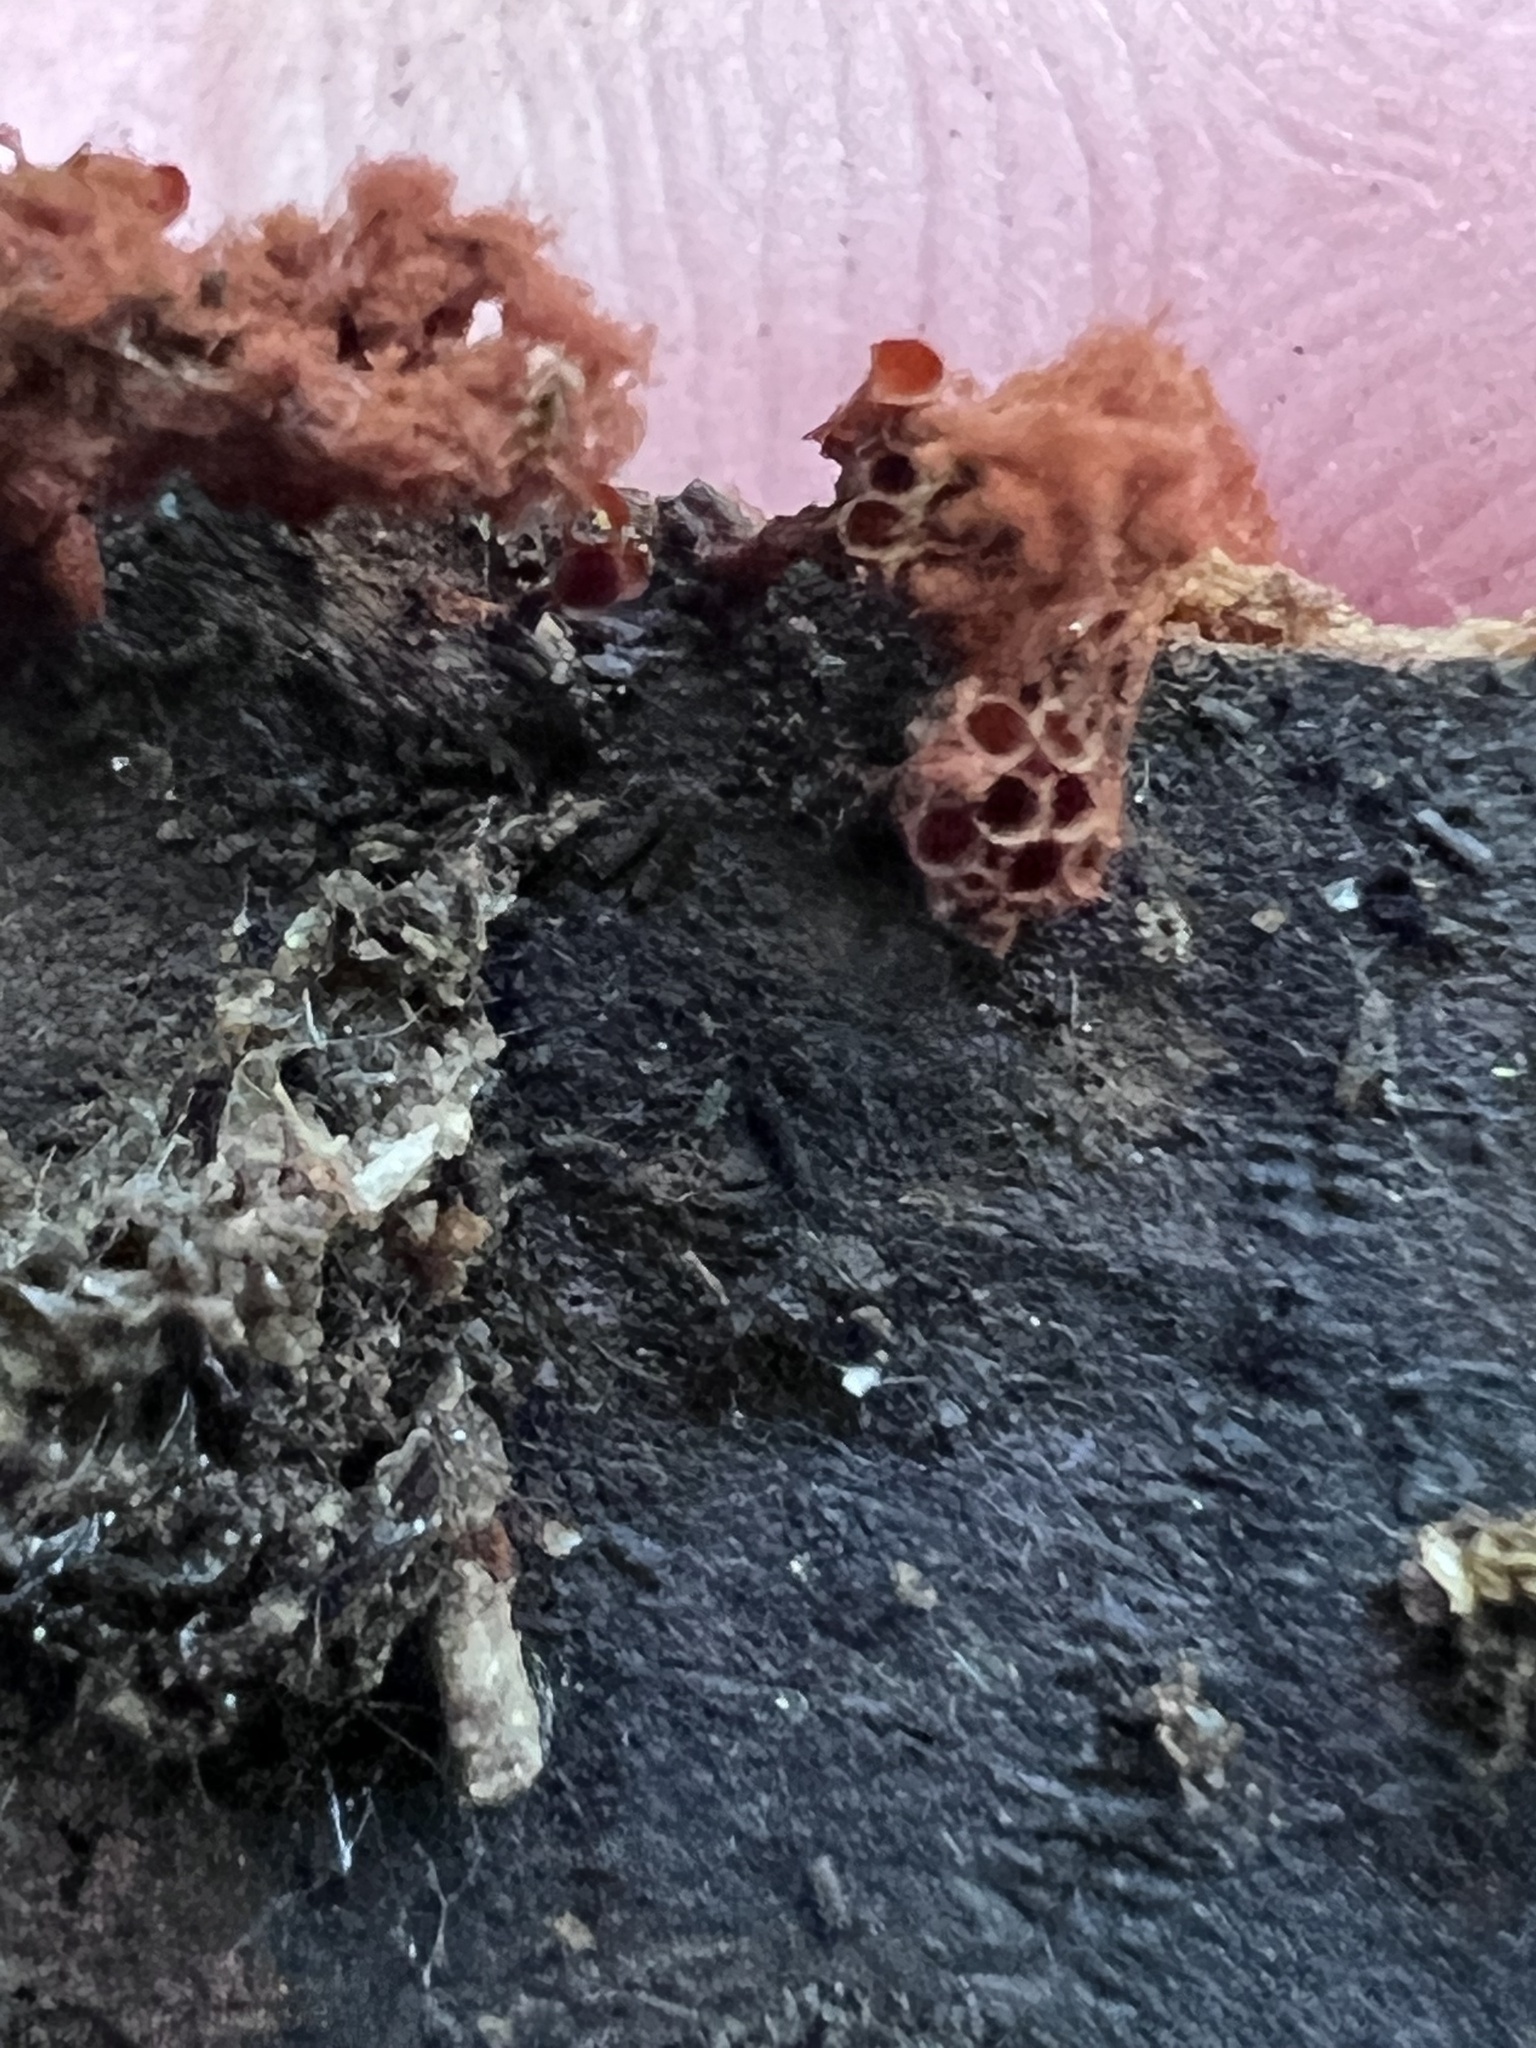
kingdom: Protozoa
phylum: Mycetozoa
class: Myxomycetes
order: Trichiales
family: Trichiaceae
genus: Metatrichia
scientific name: Metatrichia vesparia
